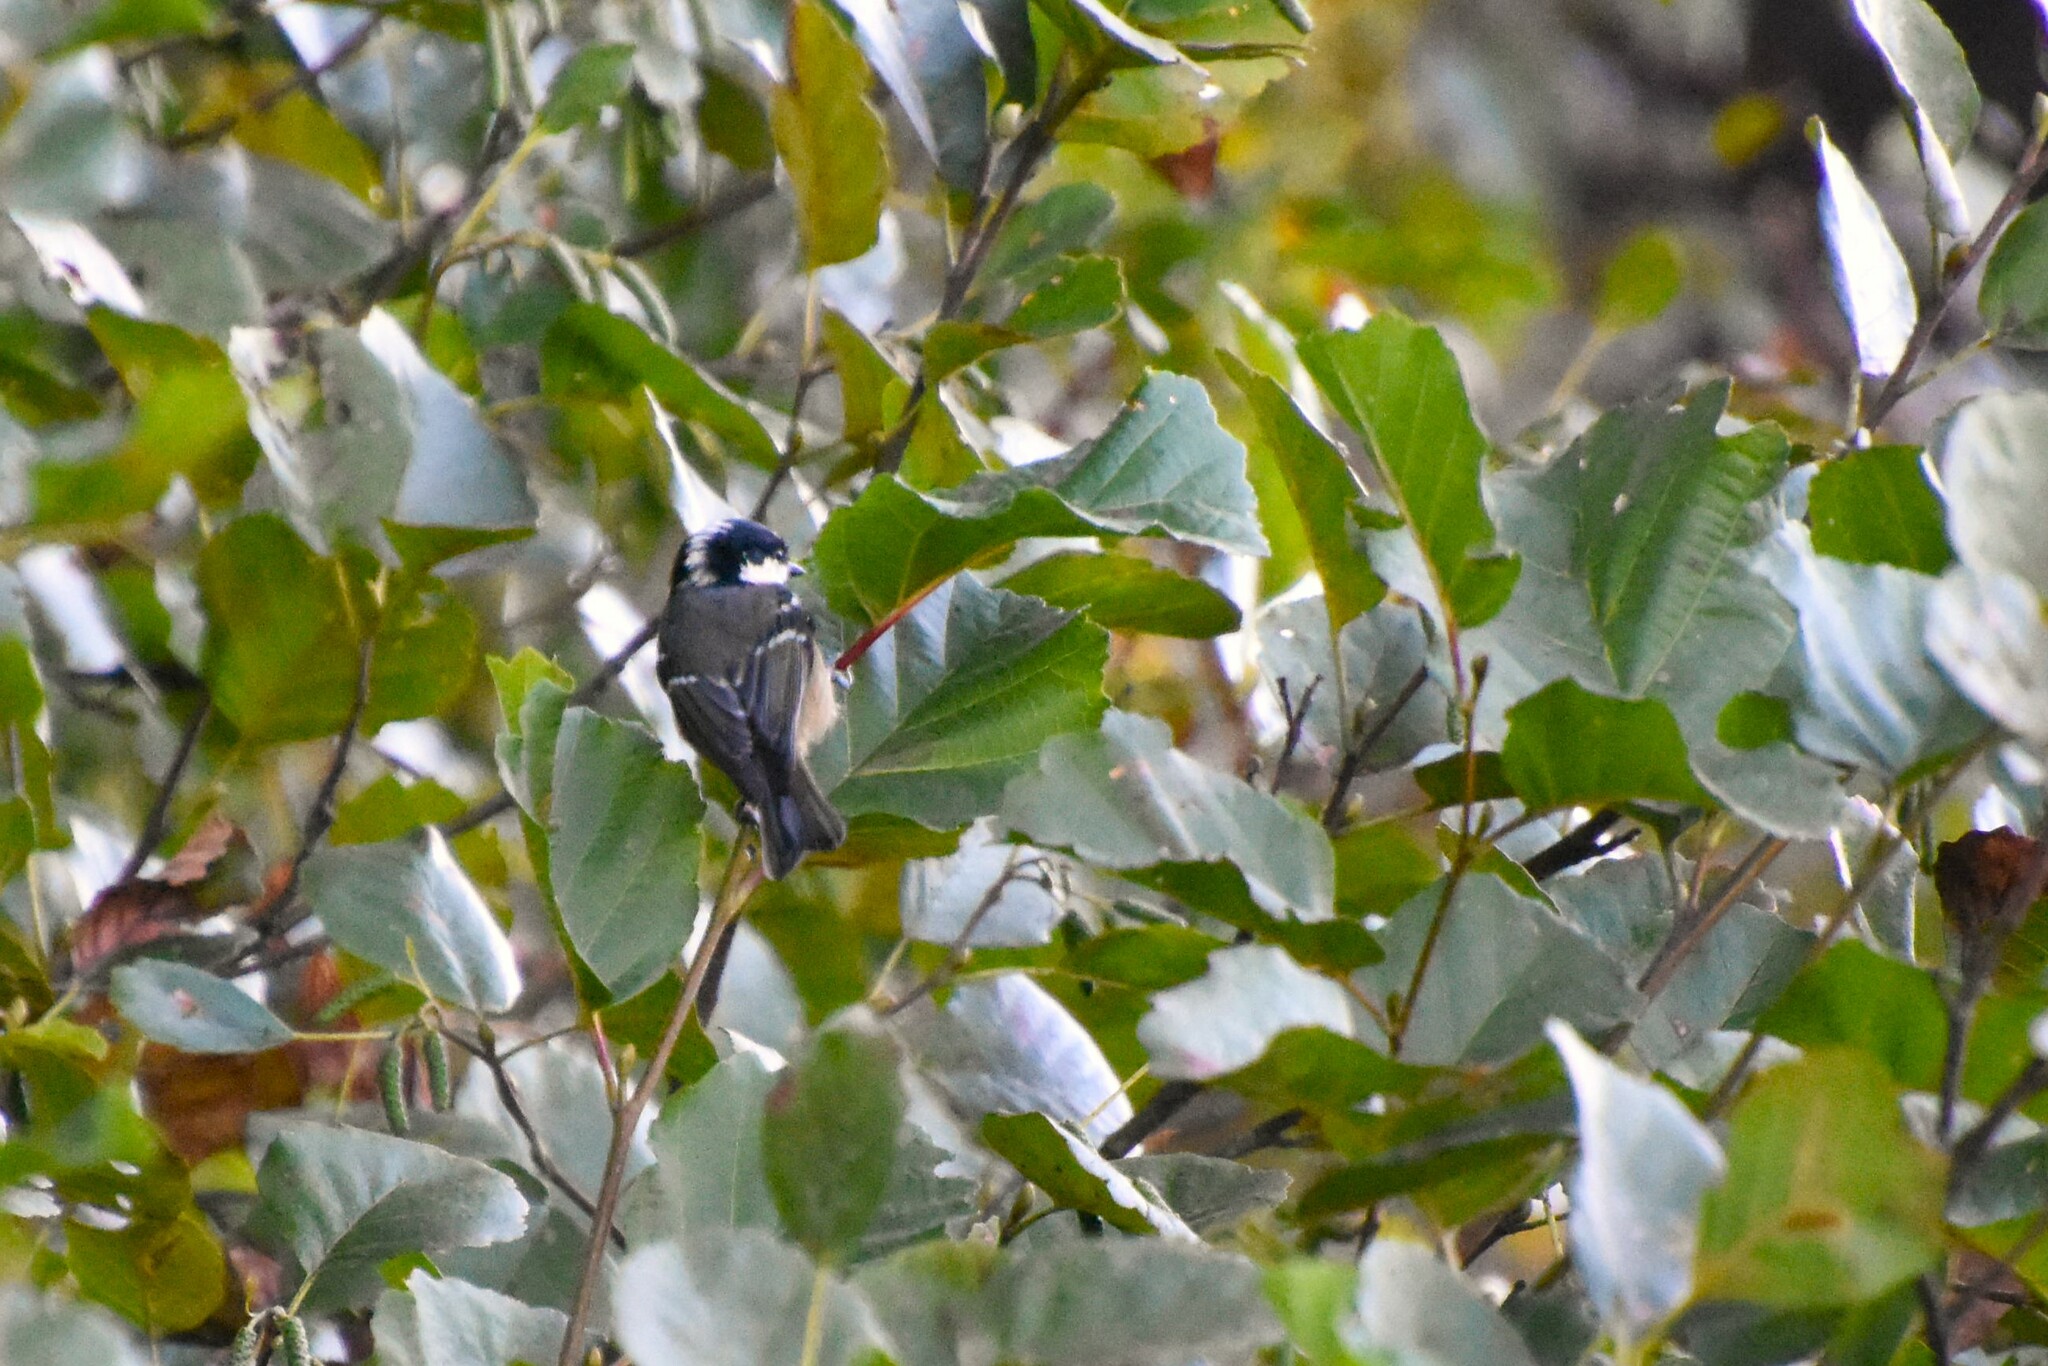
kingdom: Animalia
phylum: Chordata
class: Aves
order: Passeriformes
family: Paridae
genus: Periparus
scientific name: Periparus ater
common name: Coal tit
